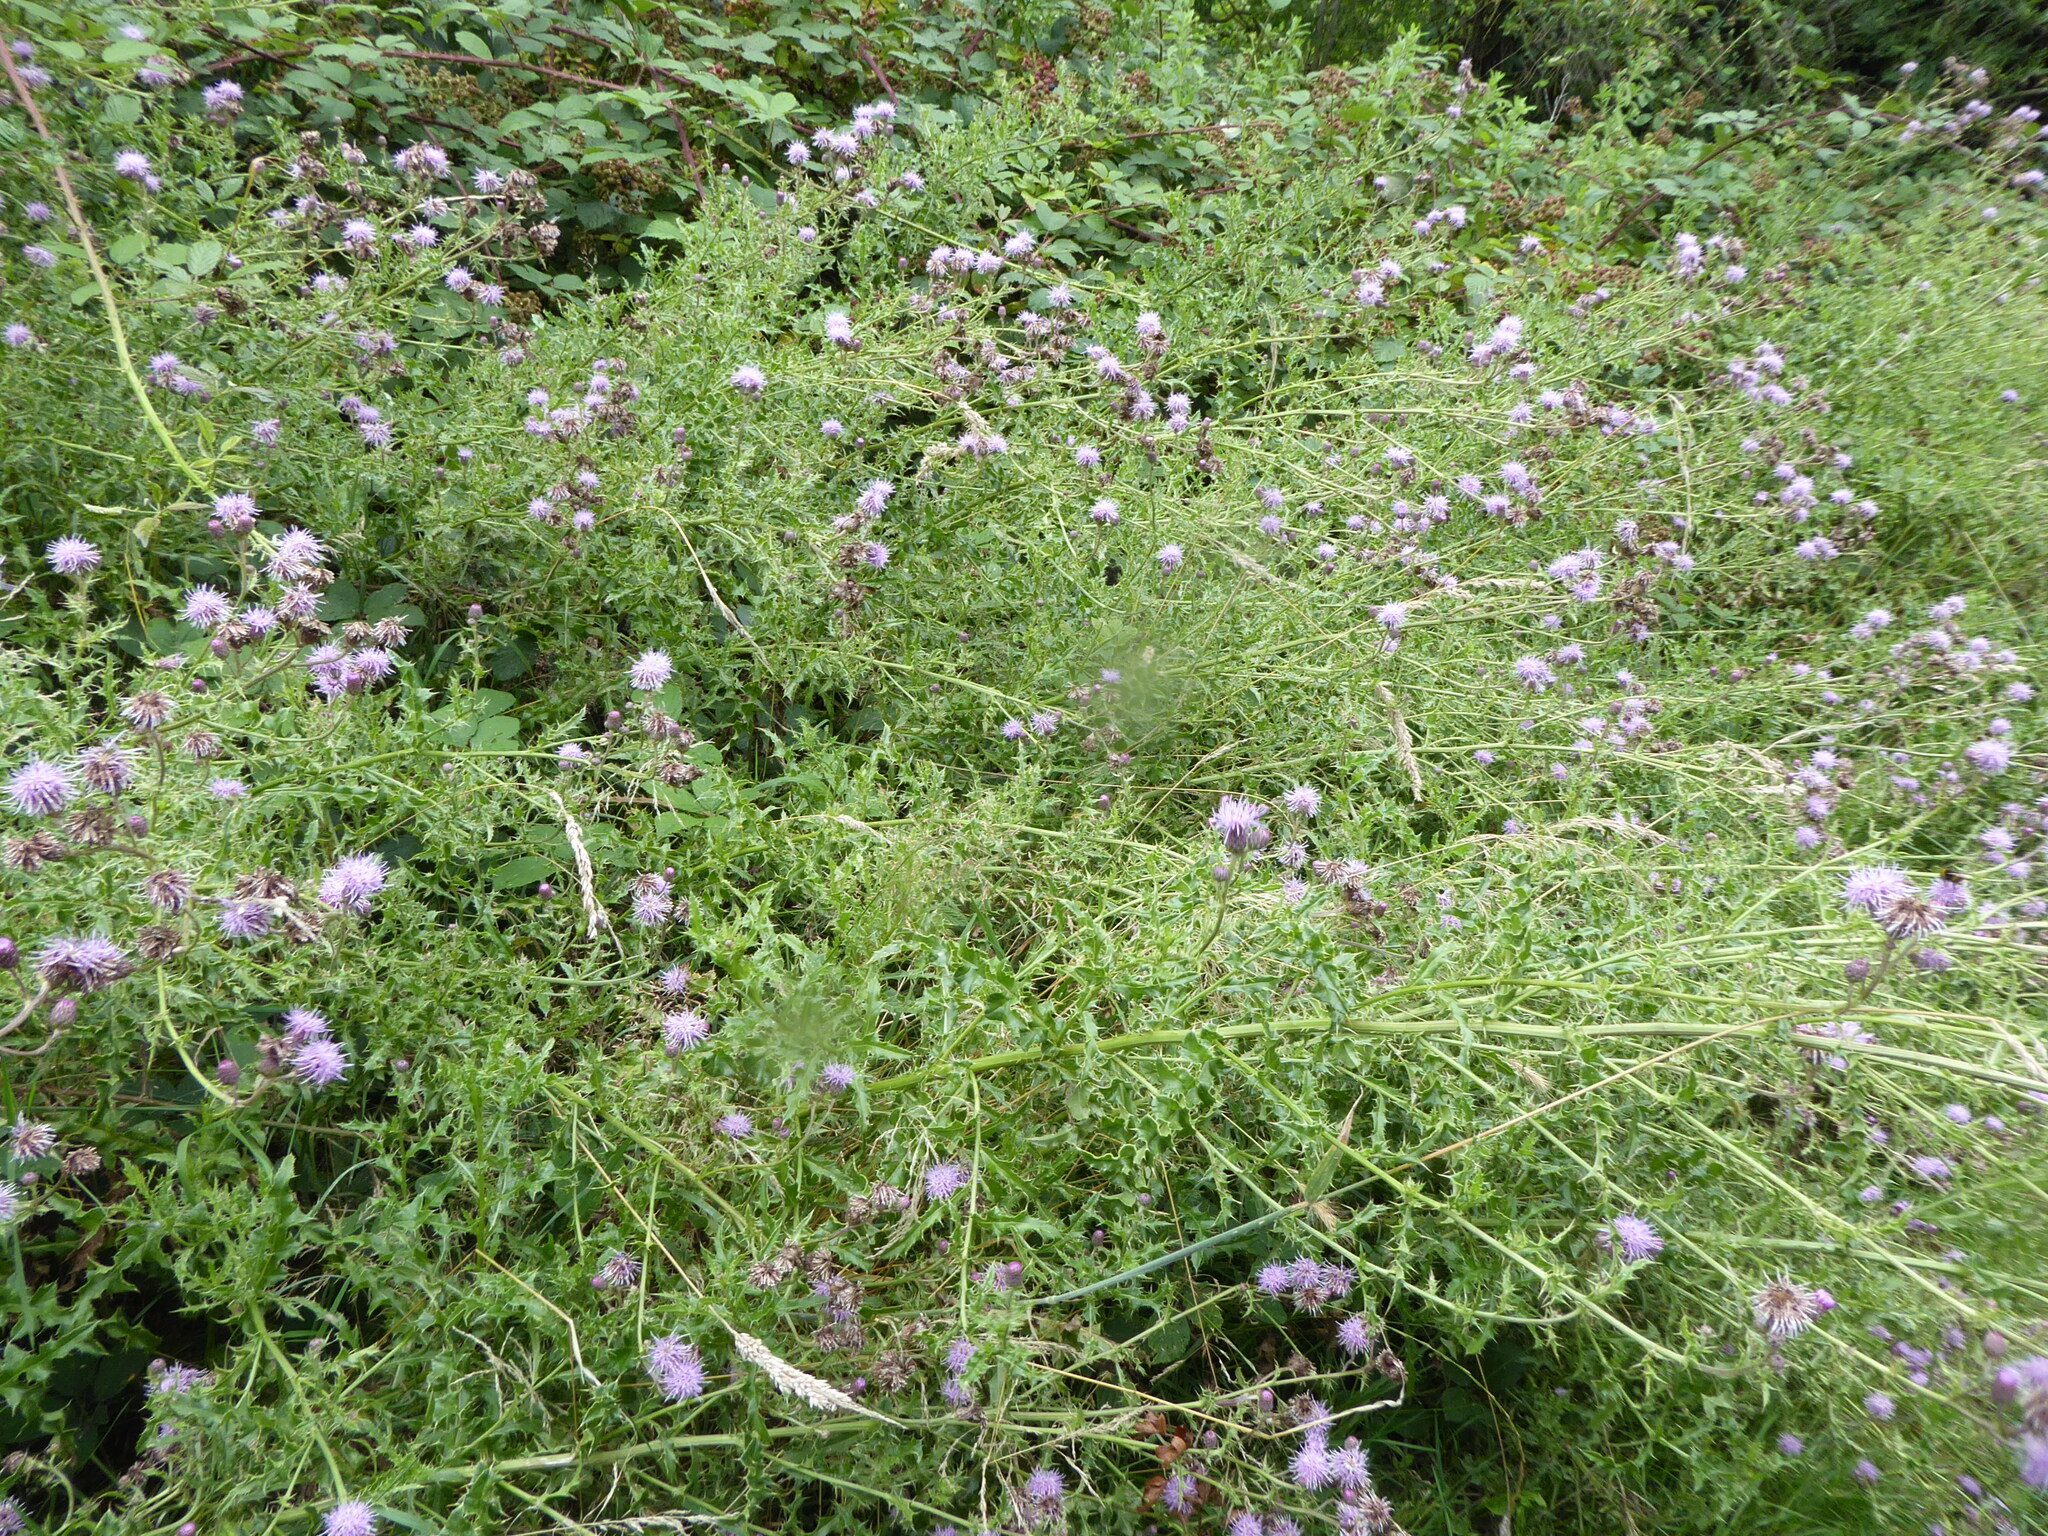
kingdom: Plantae
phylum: Tracheophyta
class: Magnoliopsida
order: Asterales
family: Asteraceae
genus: Cirsium
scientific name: Cirsium arvense
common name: Creeping thistle
